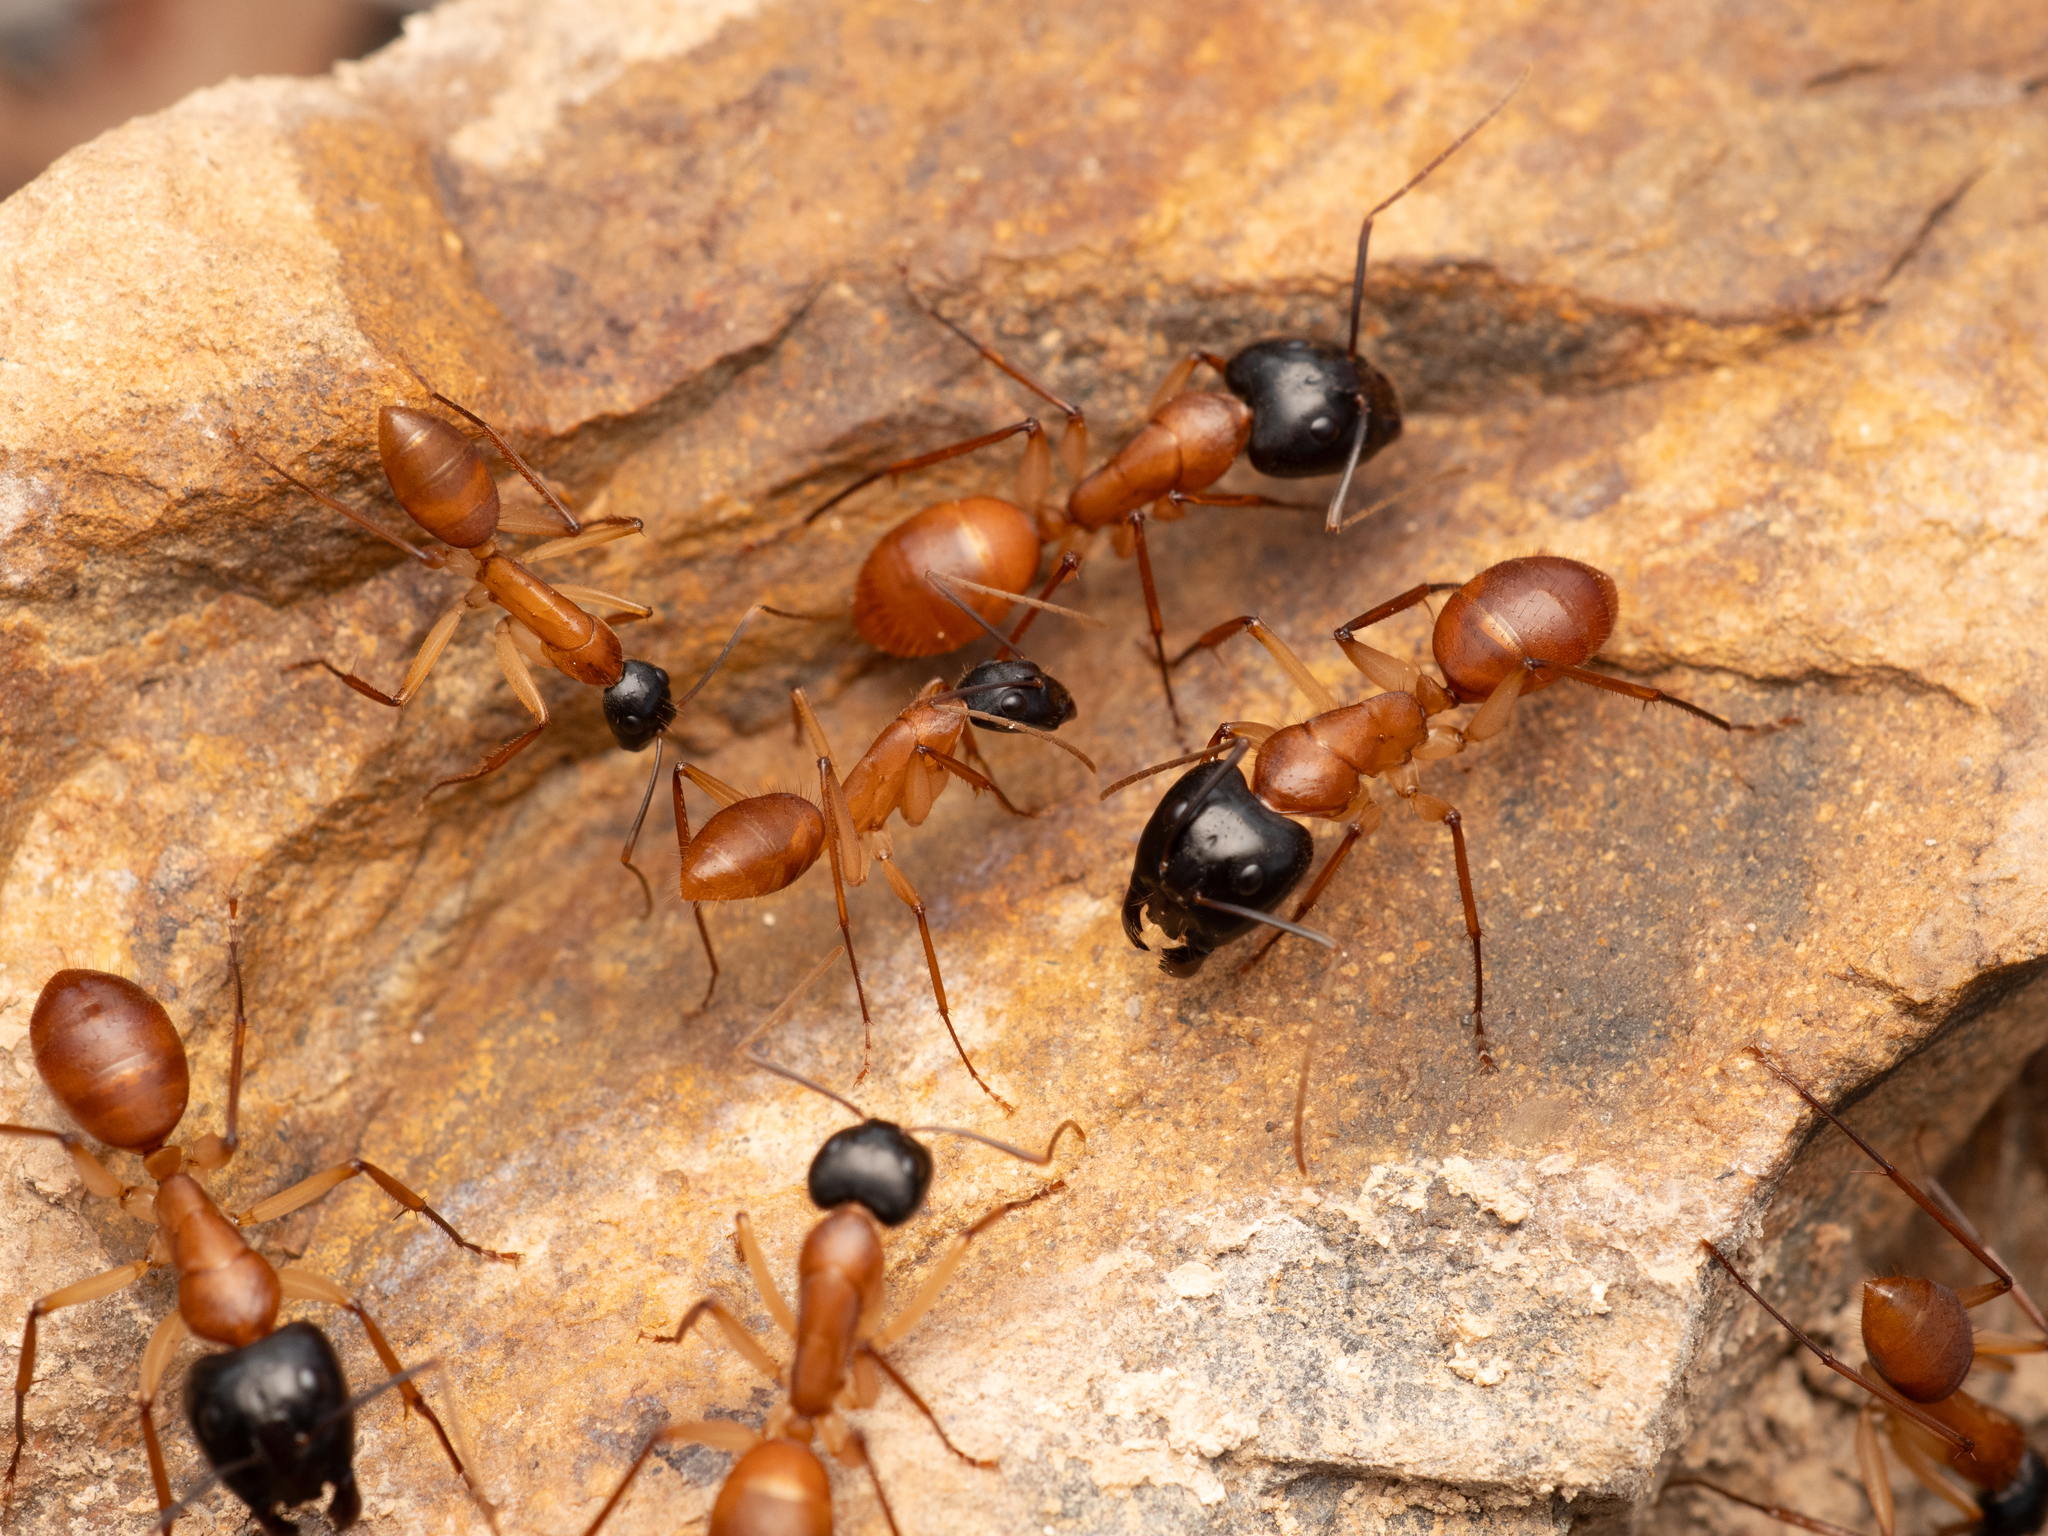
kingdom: Animalia
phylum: Arthropoda
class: Insecta
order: Hymenoptera
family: Formicidae
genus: Camponotus
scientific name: Camponotus eastwoodi
